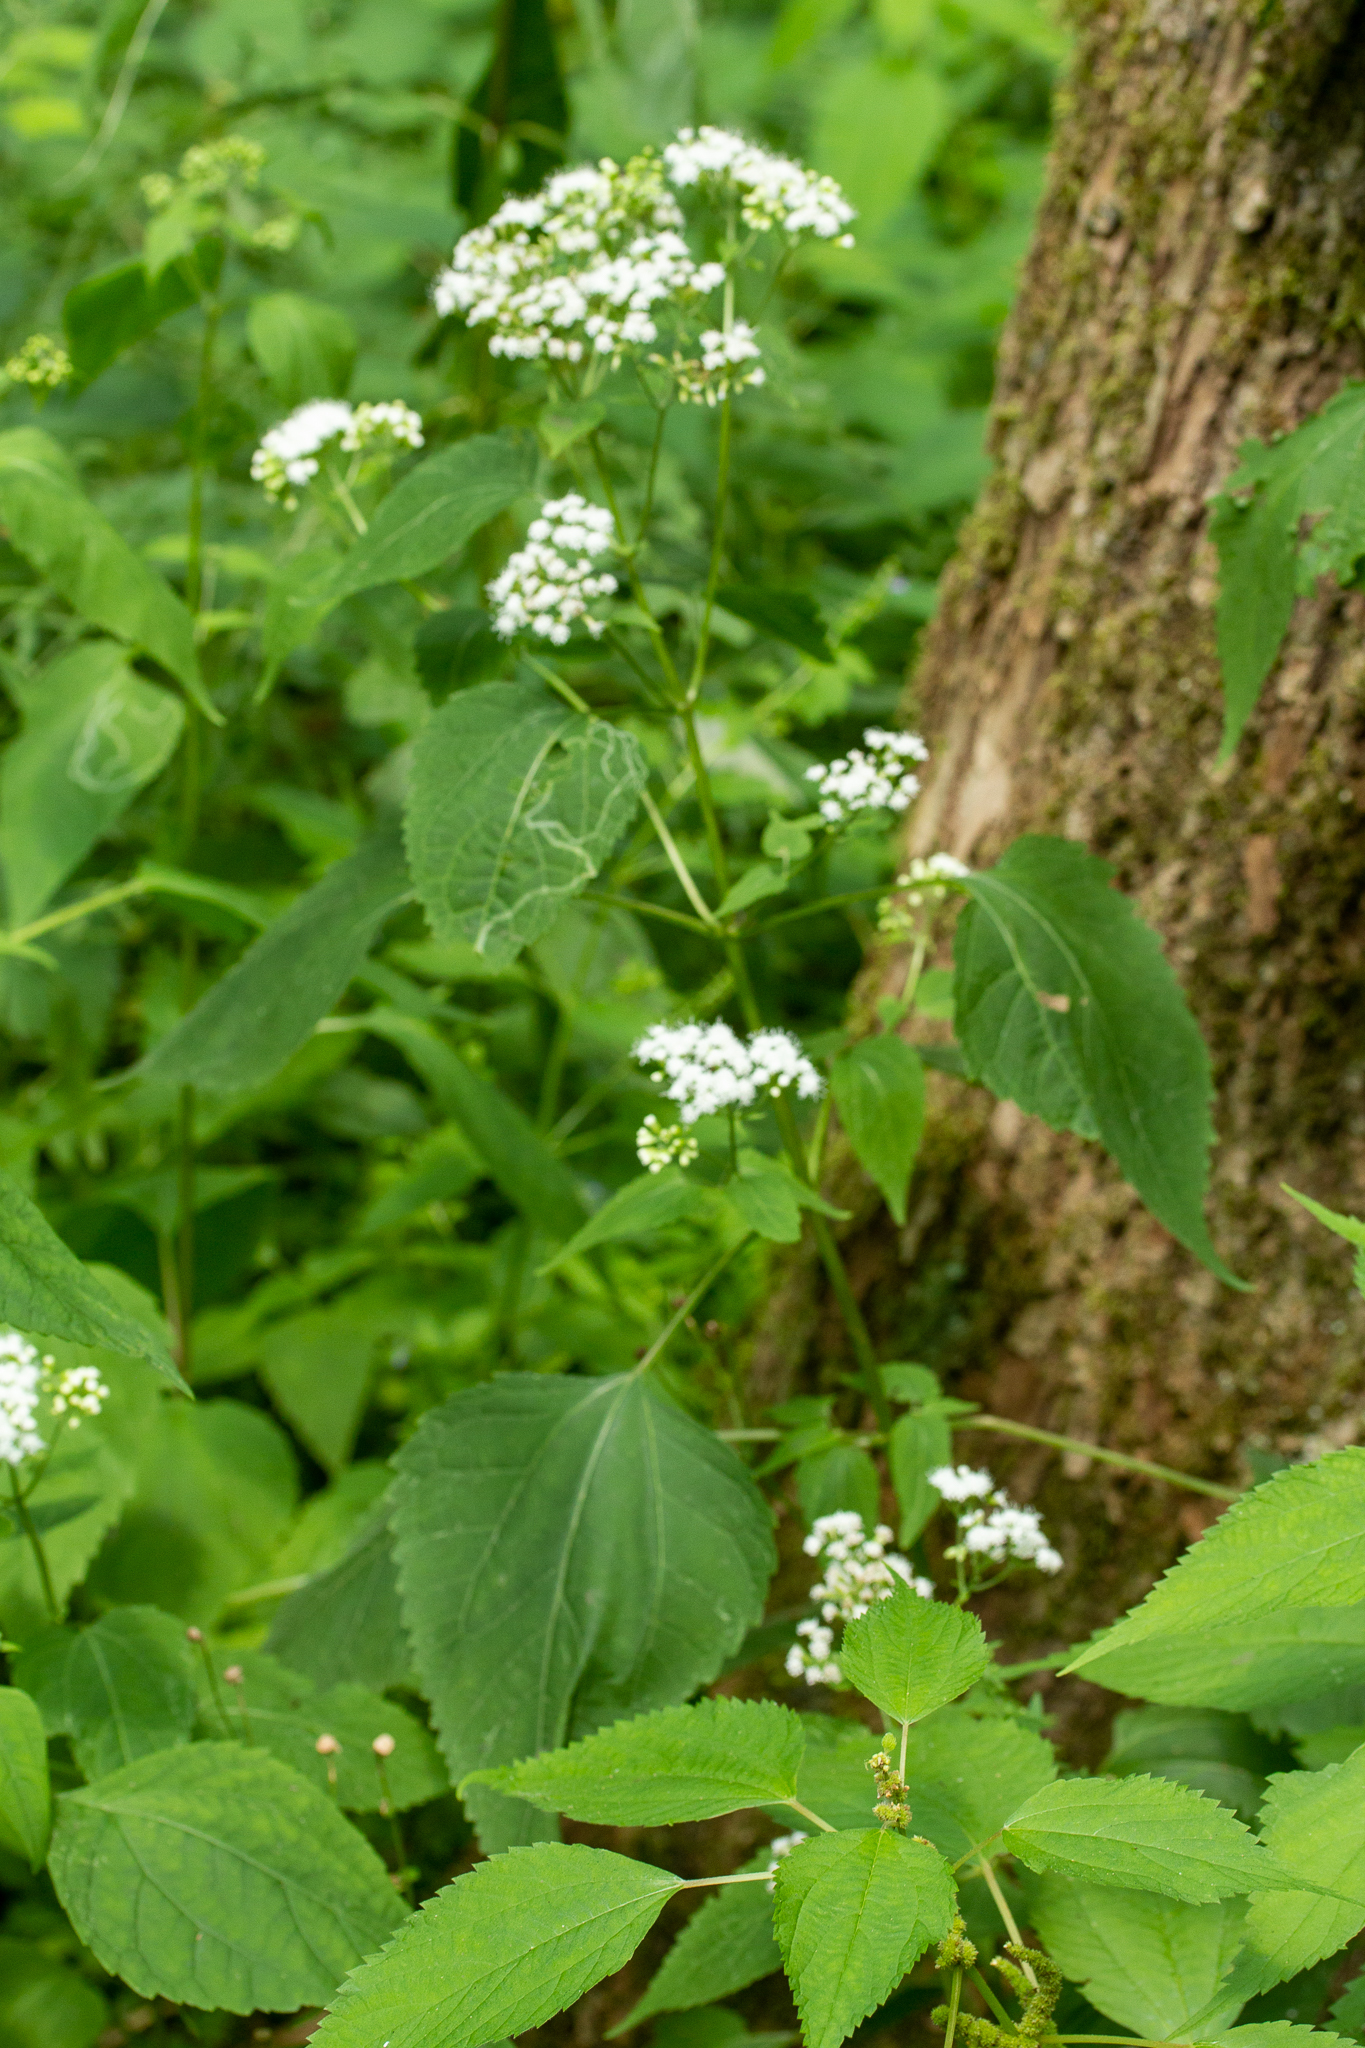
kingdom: Plantae
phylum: Tracheophyta
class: Magnoliopsida
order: Asterales
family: Asteraceae
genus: Ageratina
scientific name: Ageratina altissima
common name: White snakeroot
